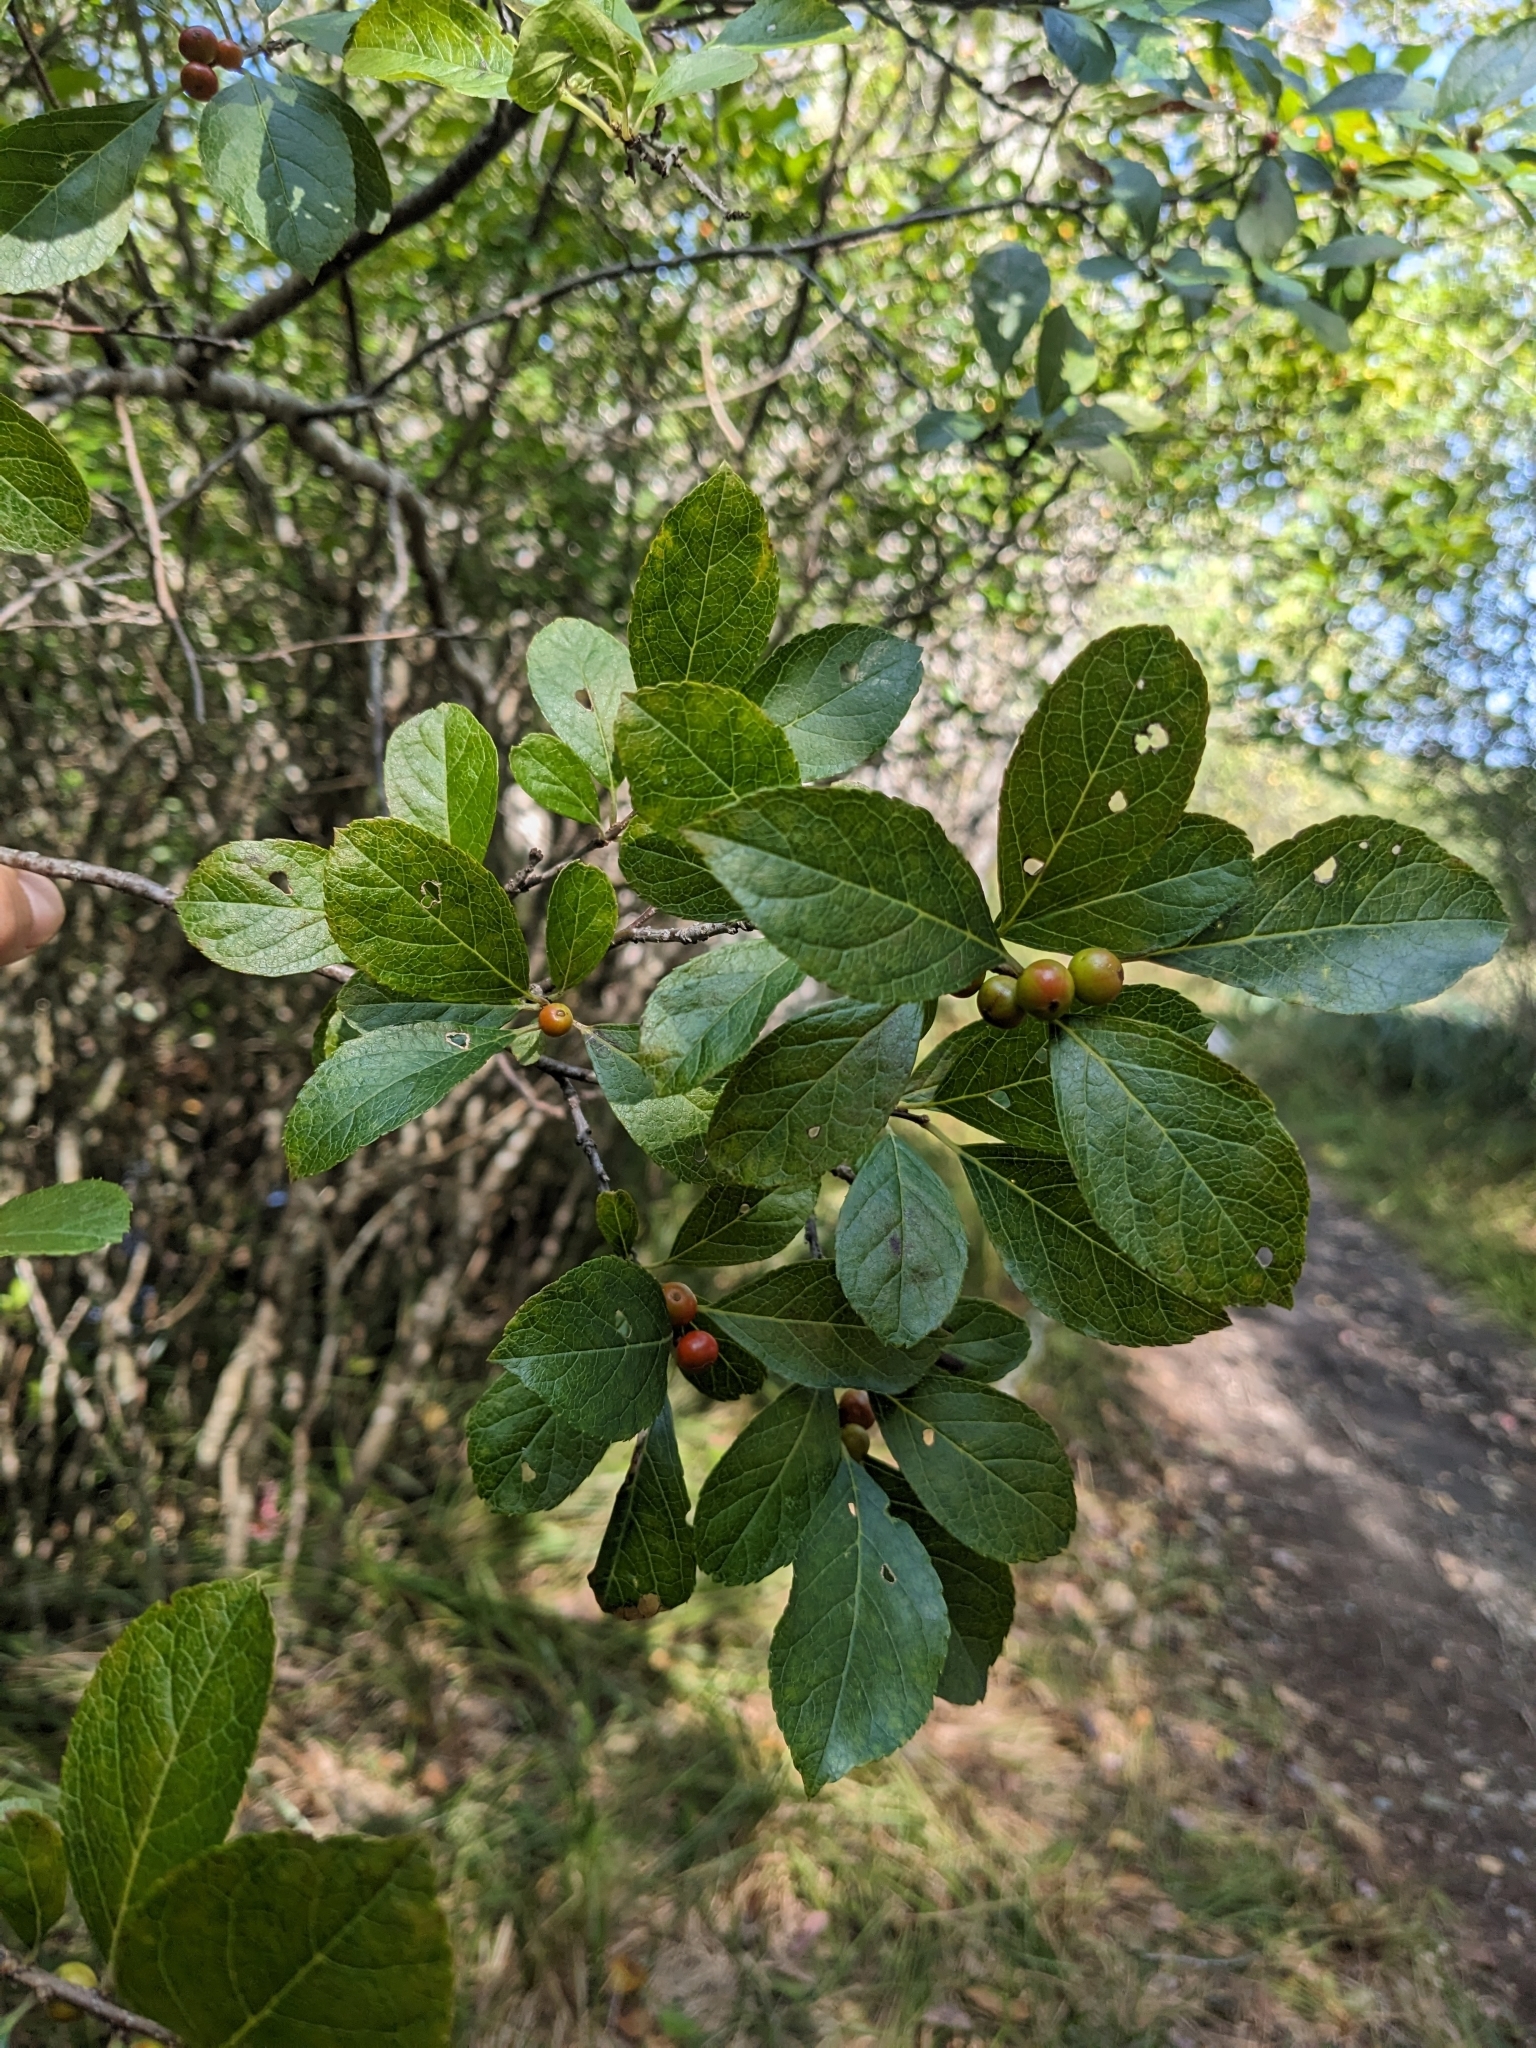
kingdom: Plantae
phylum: Tracheophyta
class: Magnoliopsida
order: Aquifoliales
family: Aquifoliaceae
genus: Ilex
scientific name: Ilex verticillata
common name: Virginia winterberry
